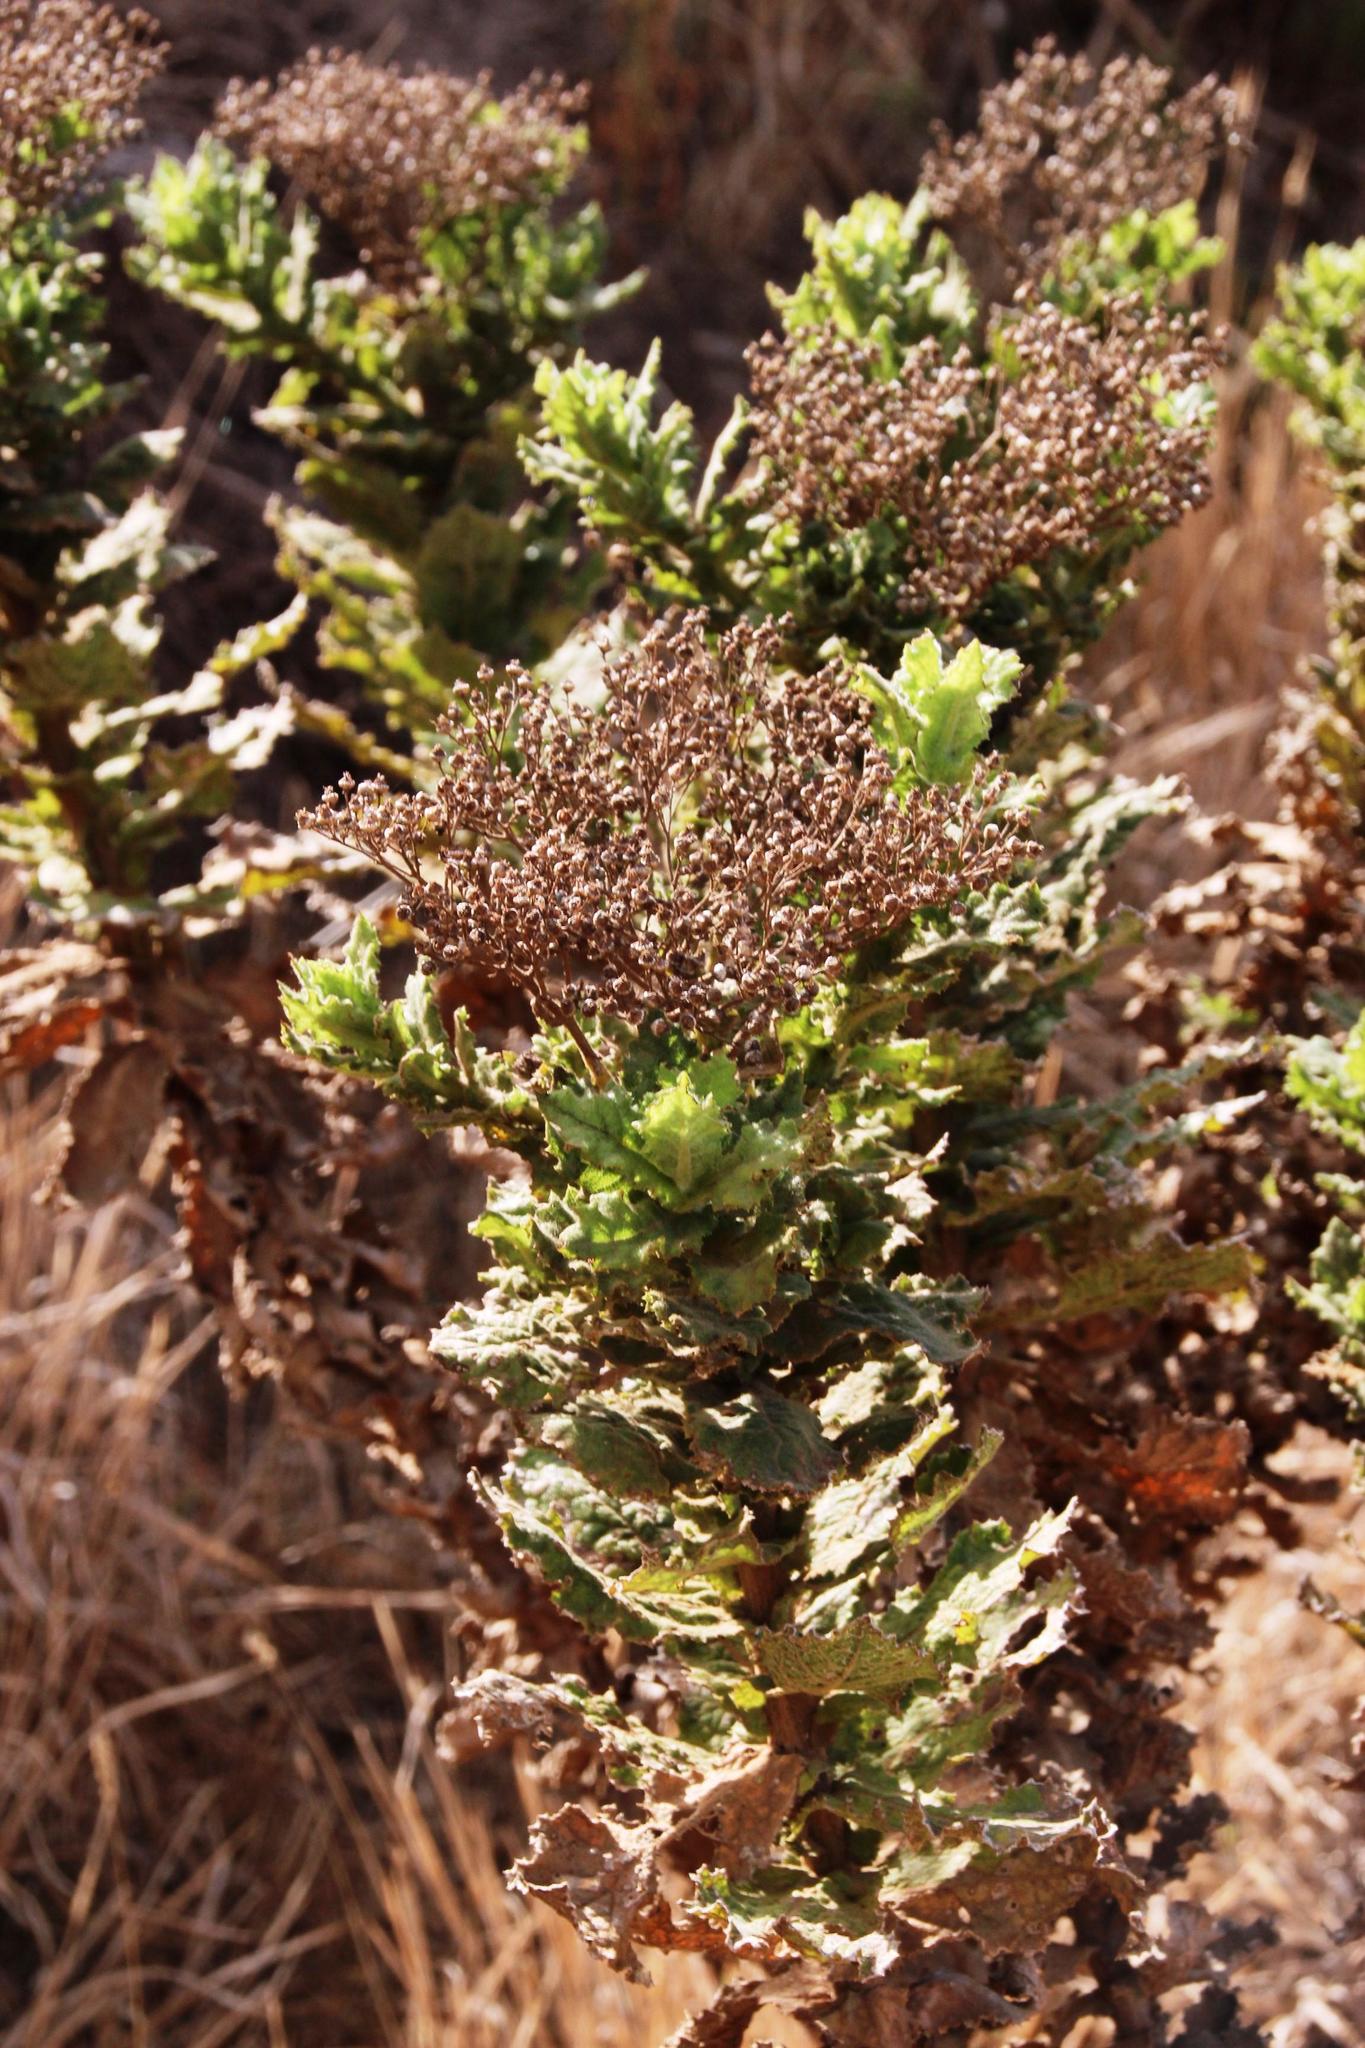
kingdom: Plantae
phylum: Tracheophyta
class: Magnoliopsida
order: Asterales
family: Asteraceae
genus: Senecio
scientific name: Senecio rigidus
